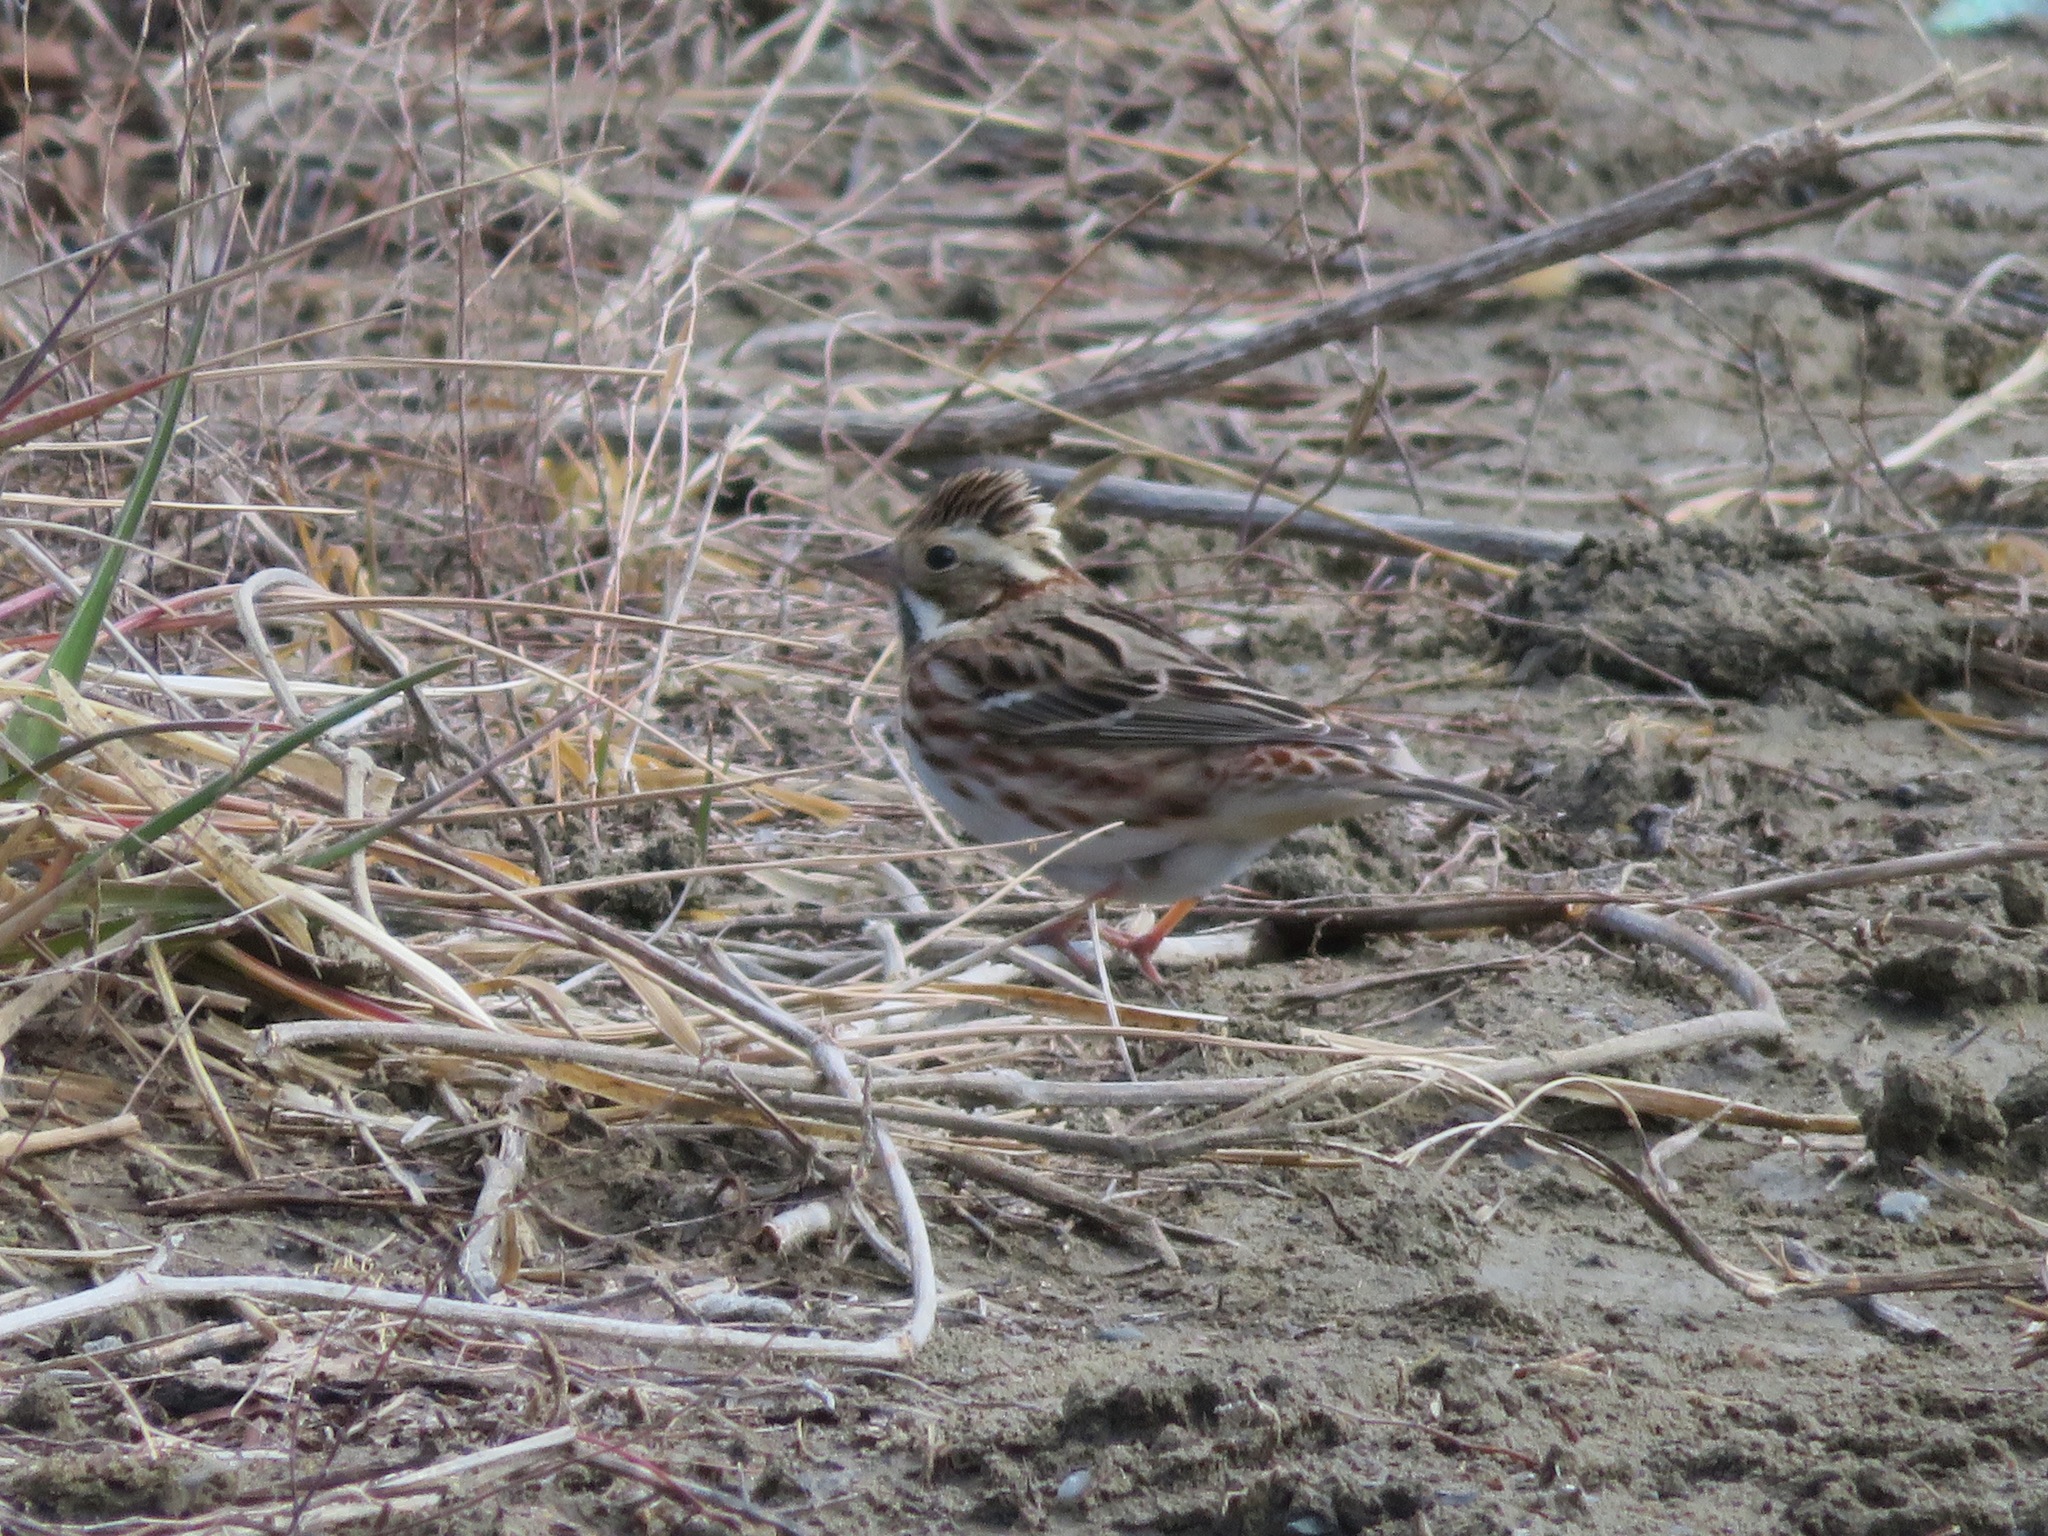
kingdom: Animalia
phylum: Chordata
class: Aves
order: Passeriformes
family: Emberizidae
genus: Emberiza
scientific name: Emberiza rustica
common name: Rustic bunting
